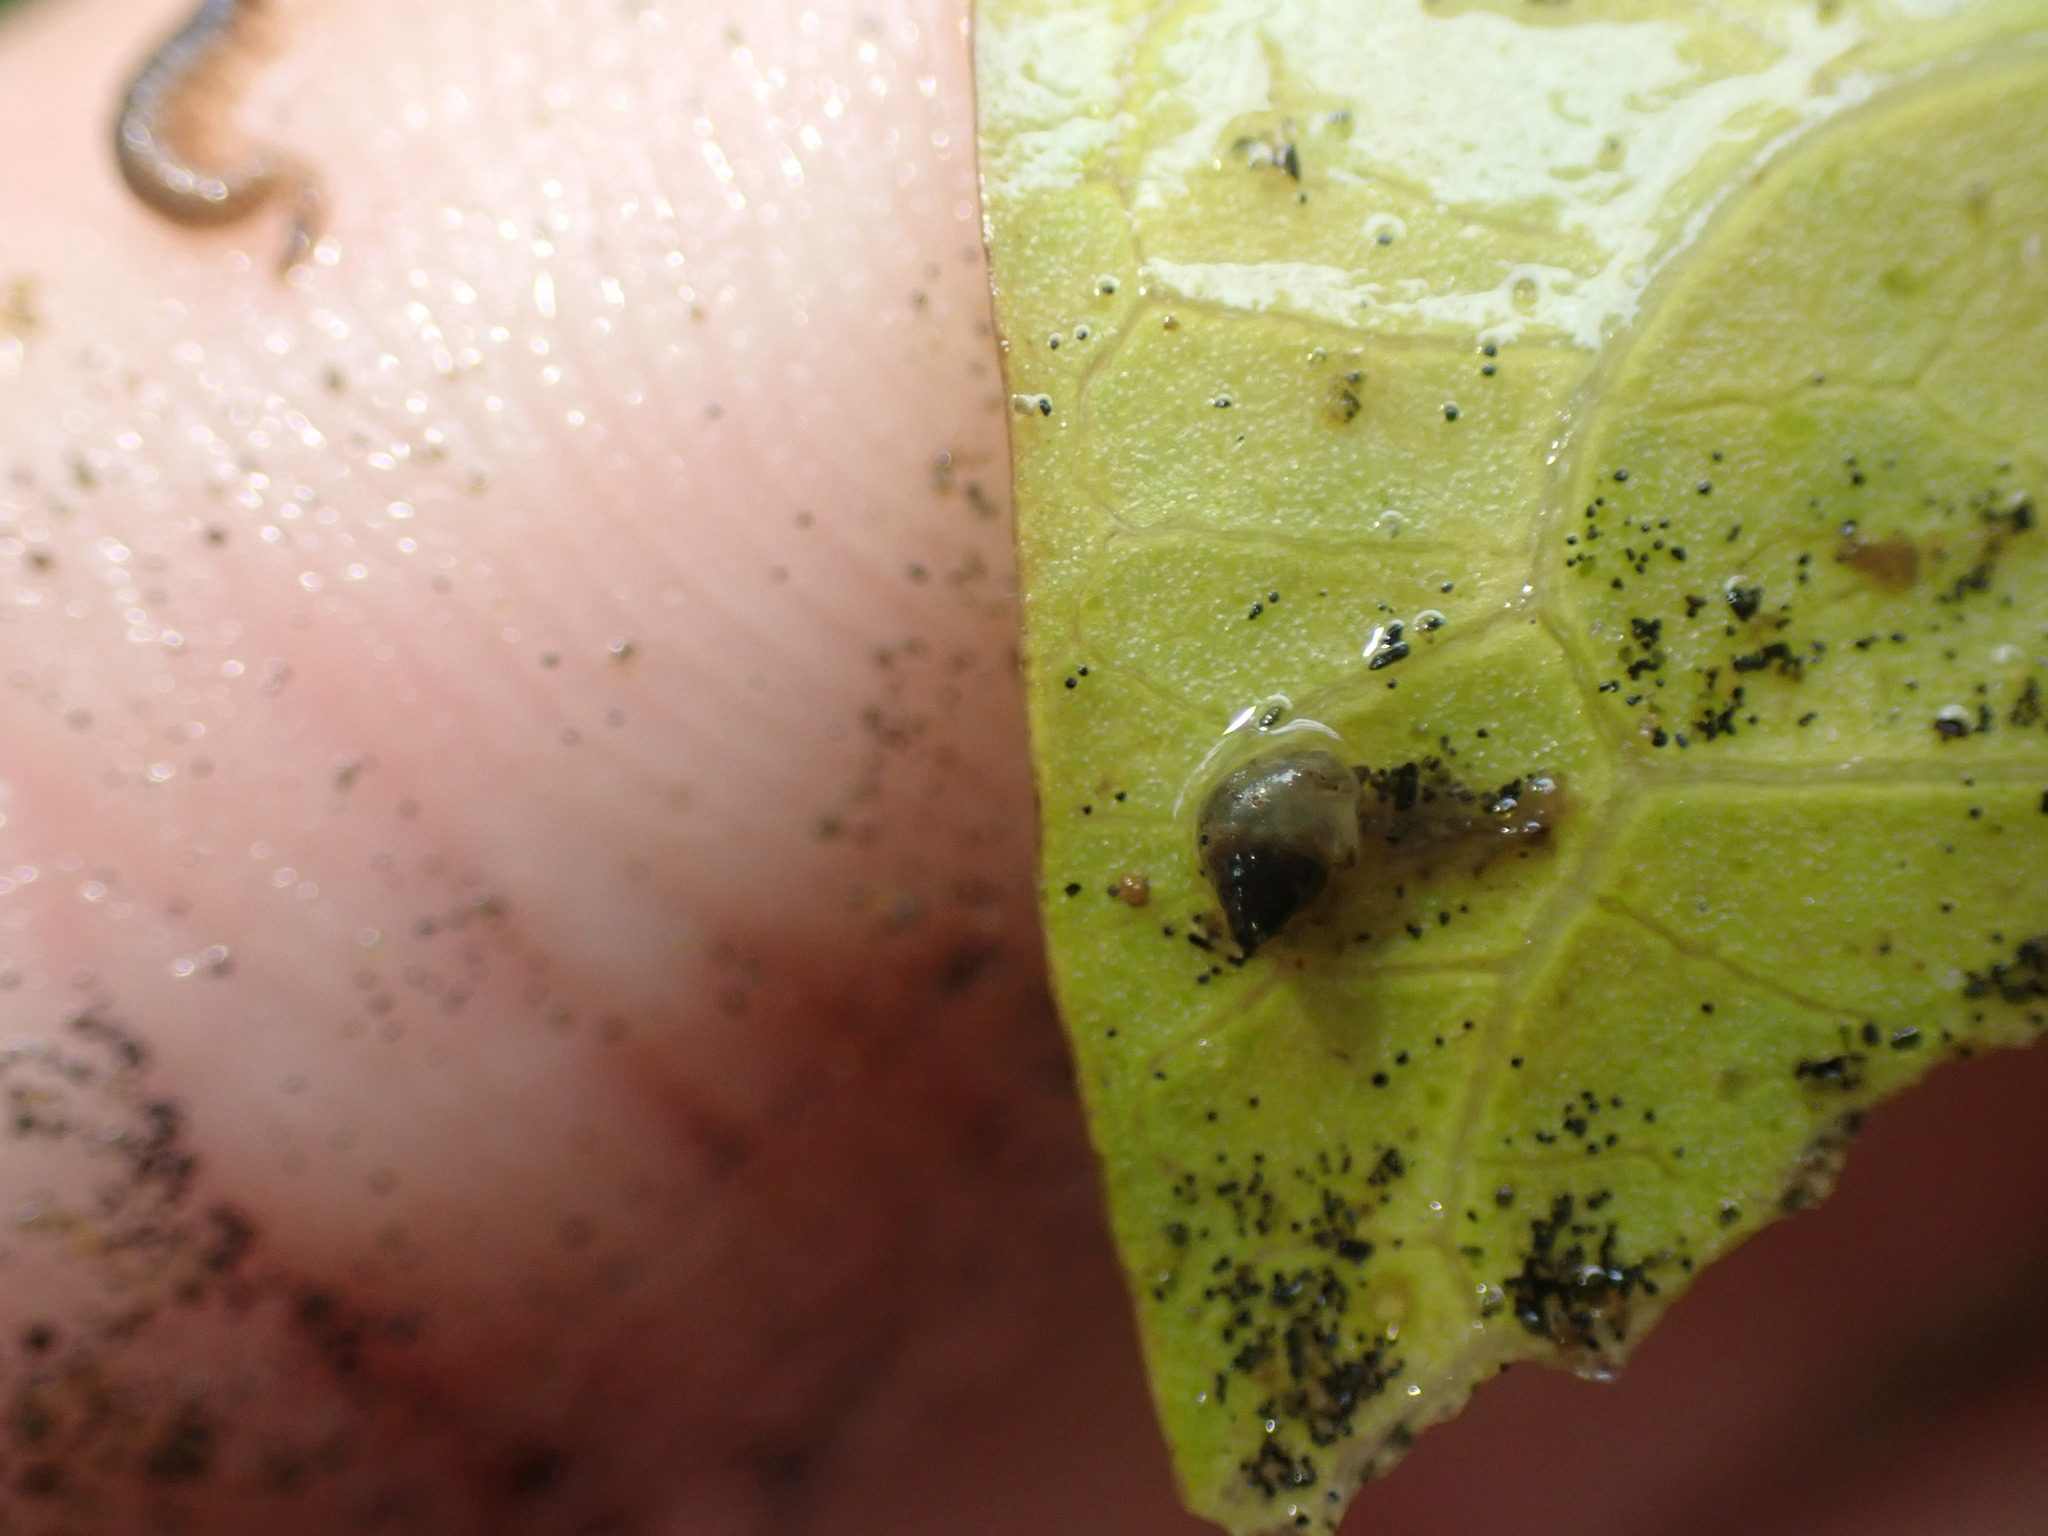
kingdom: Animalia
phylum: Mollusca
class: Gastropoda
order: Littorinimorpha
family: Tateidae
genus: Potamopyrgus
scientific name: Potamopyrgus antipodarum
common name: Jenkins' spire snail
